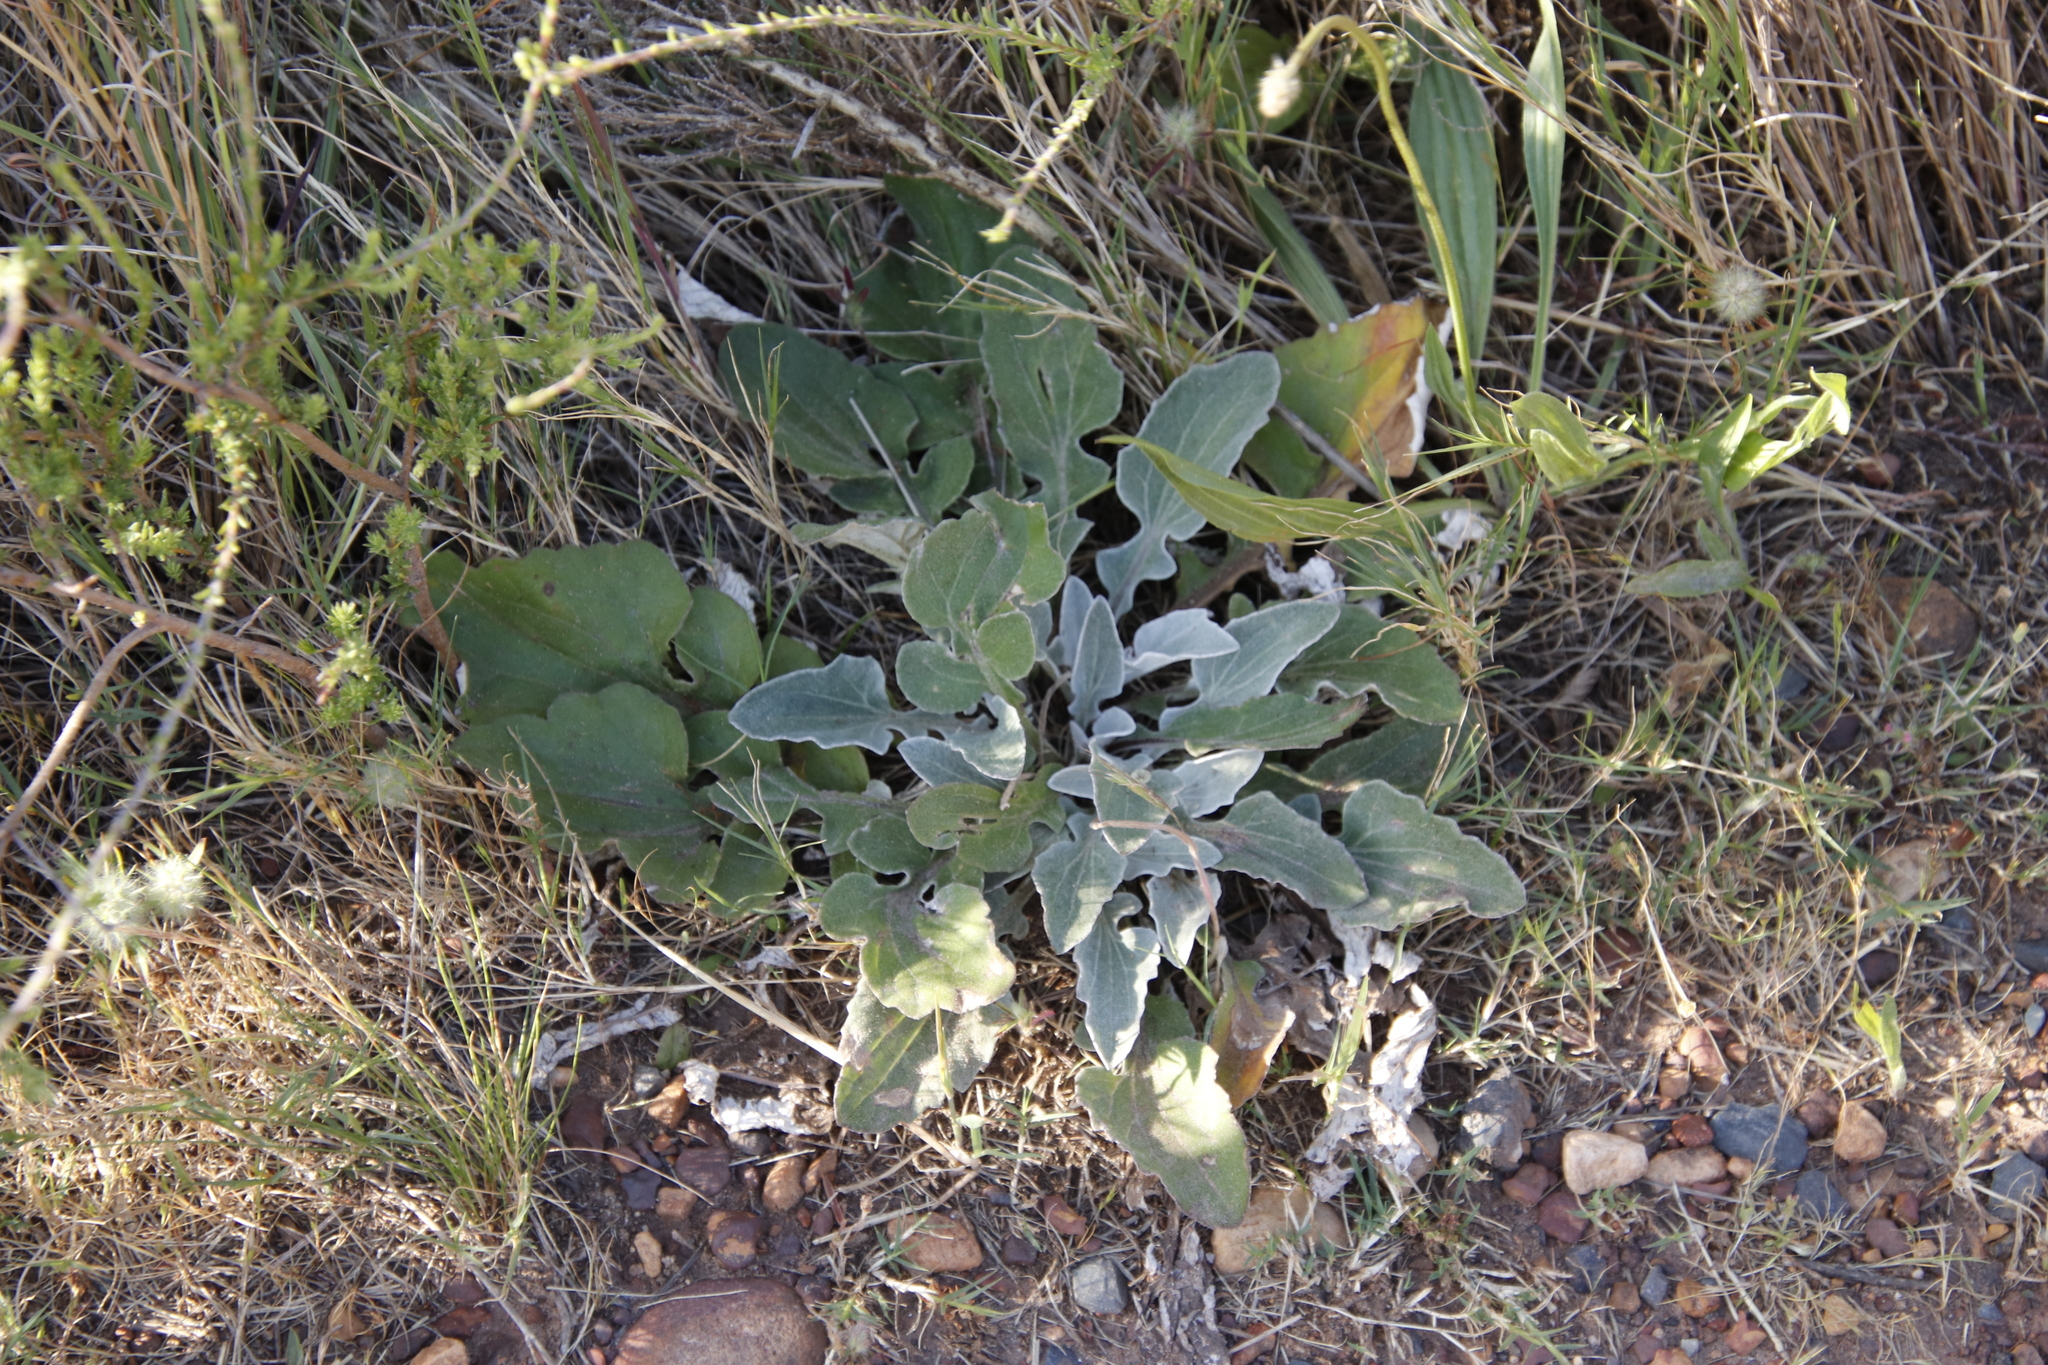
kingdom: Plantae
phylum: Tracheophyta
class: Magnoliopsida
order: Asterales
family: Asteraceae
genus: Arctotheca
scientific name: Arctotheca calendula
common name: Capeweed
